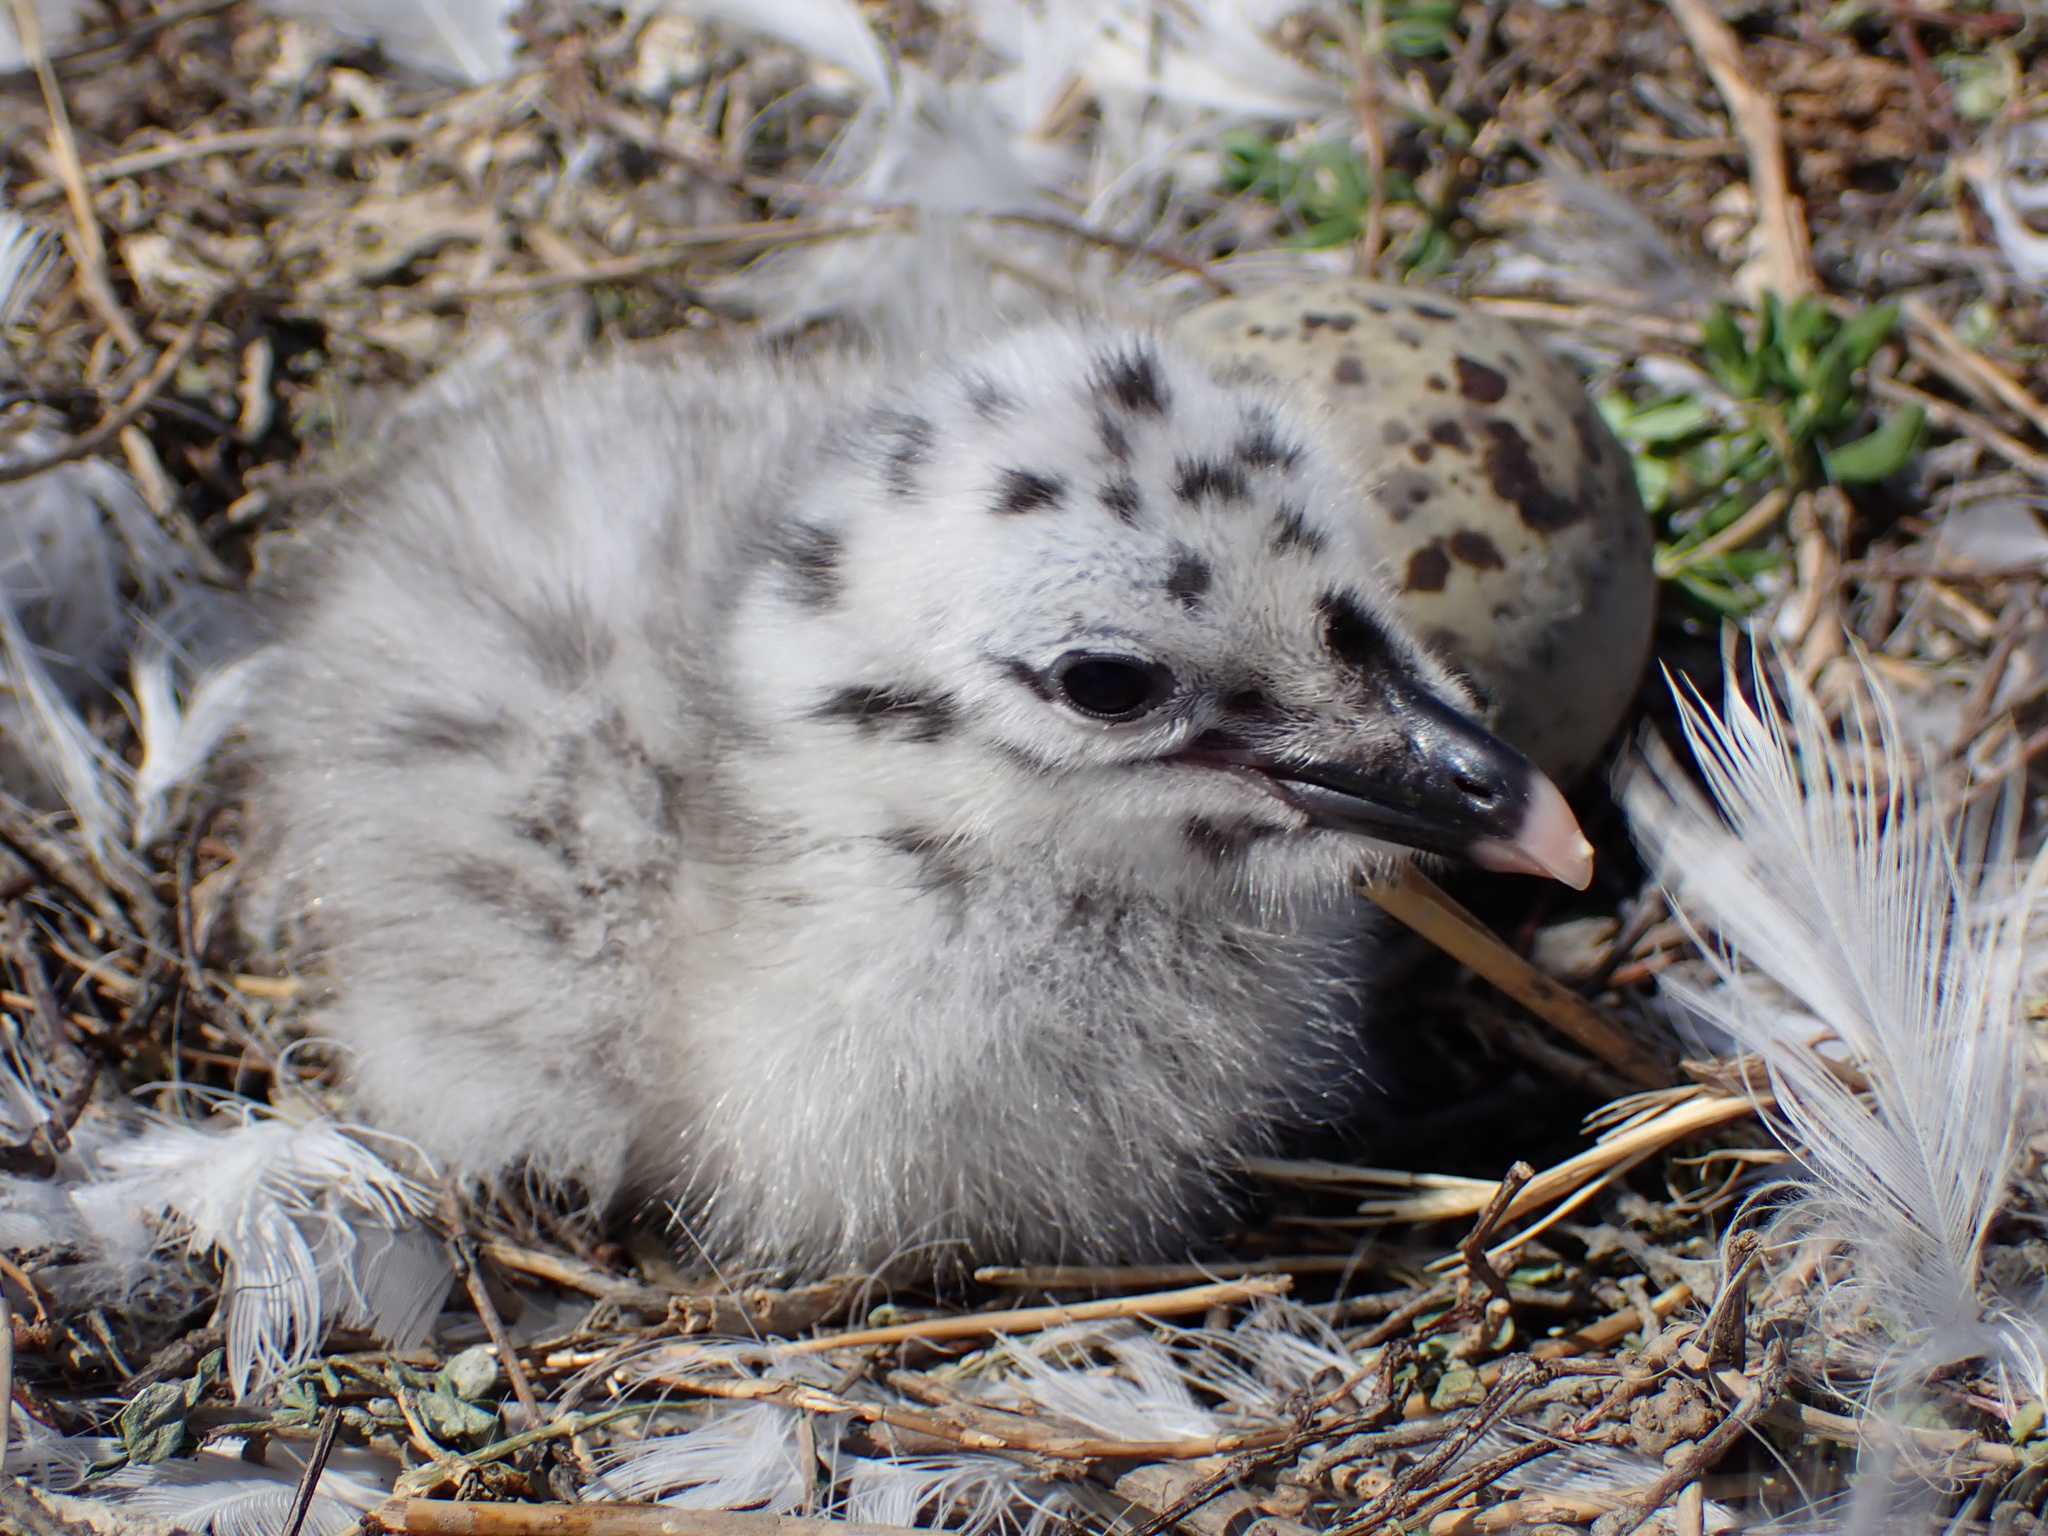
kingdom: Animalia
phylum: Chordata
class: Aves
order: Charadriiformes
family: Laridae
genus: Larus
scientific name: Larus californicus
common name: California gull
